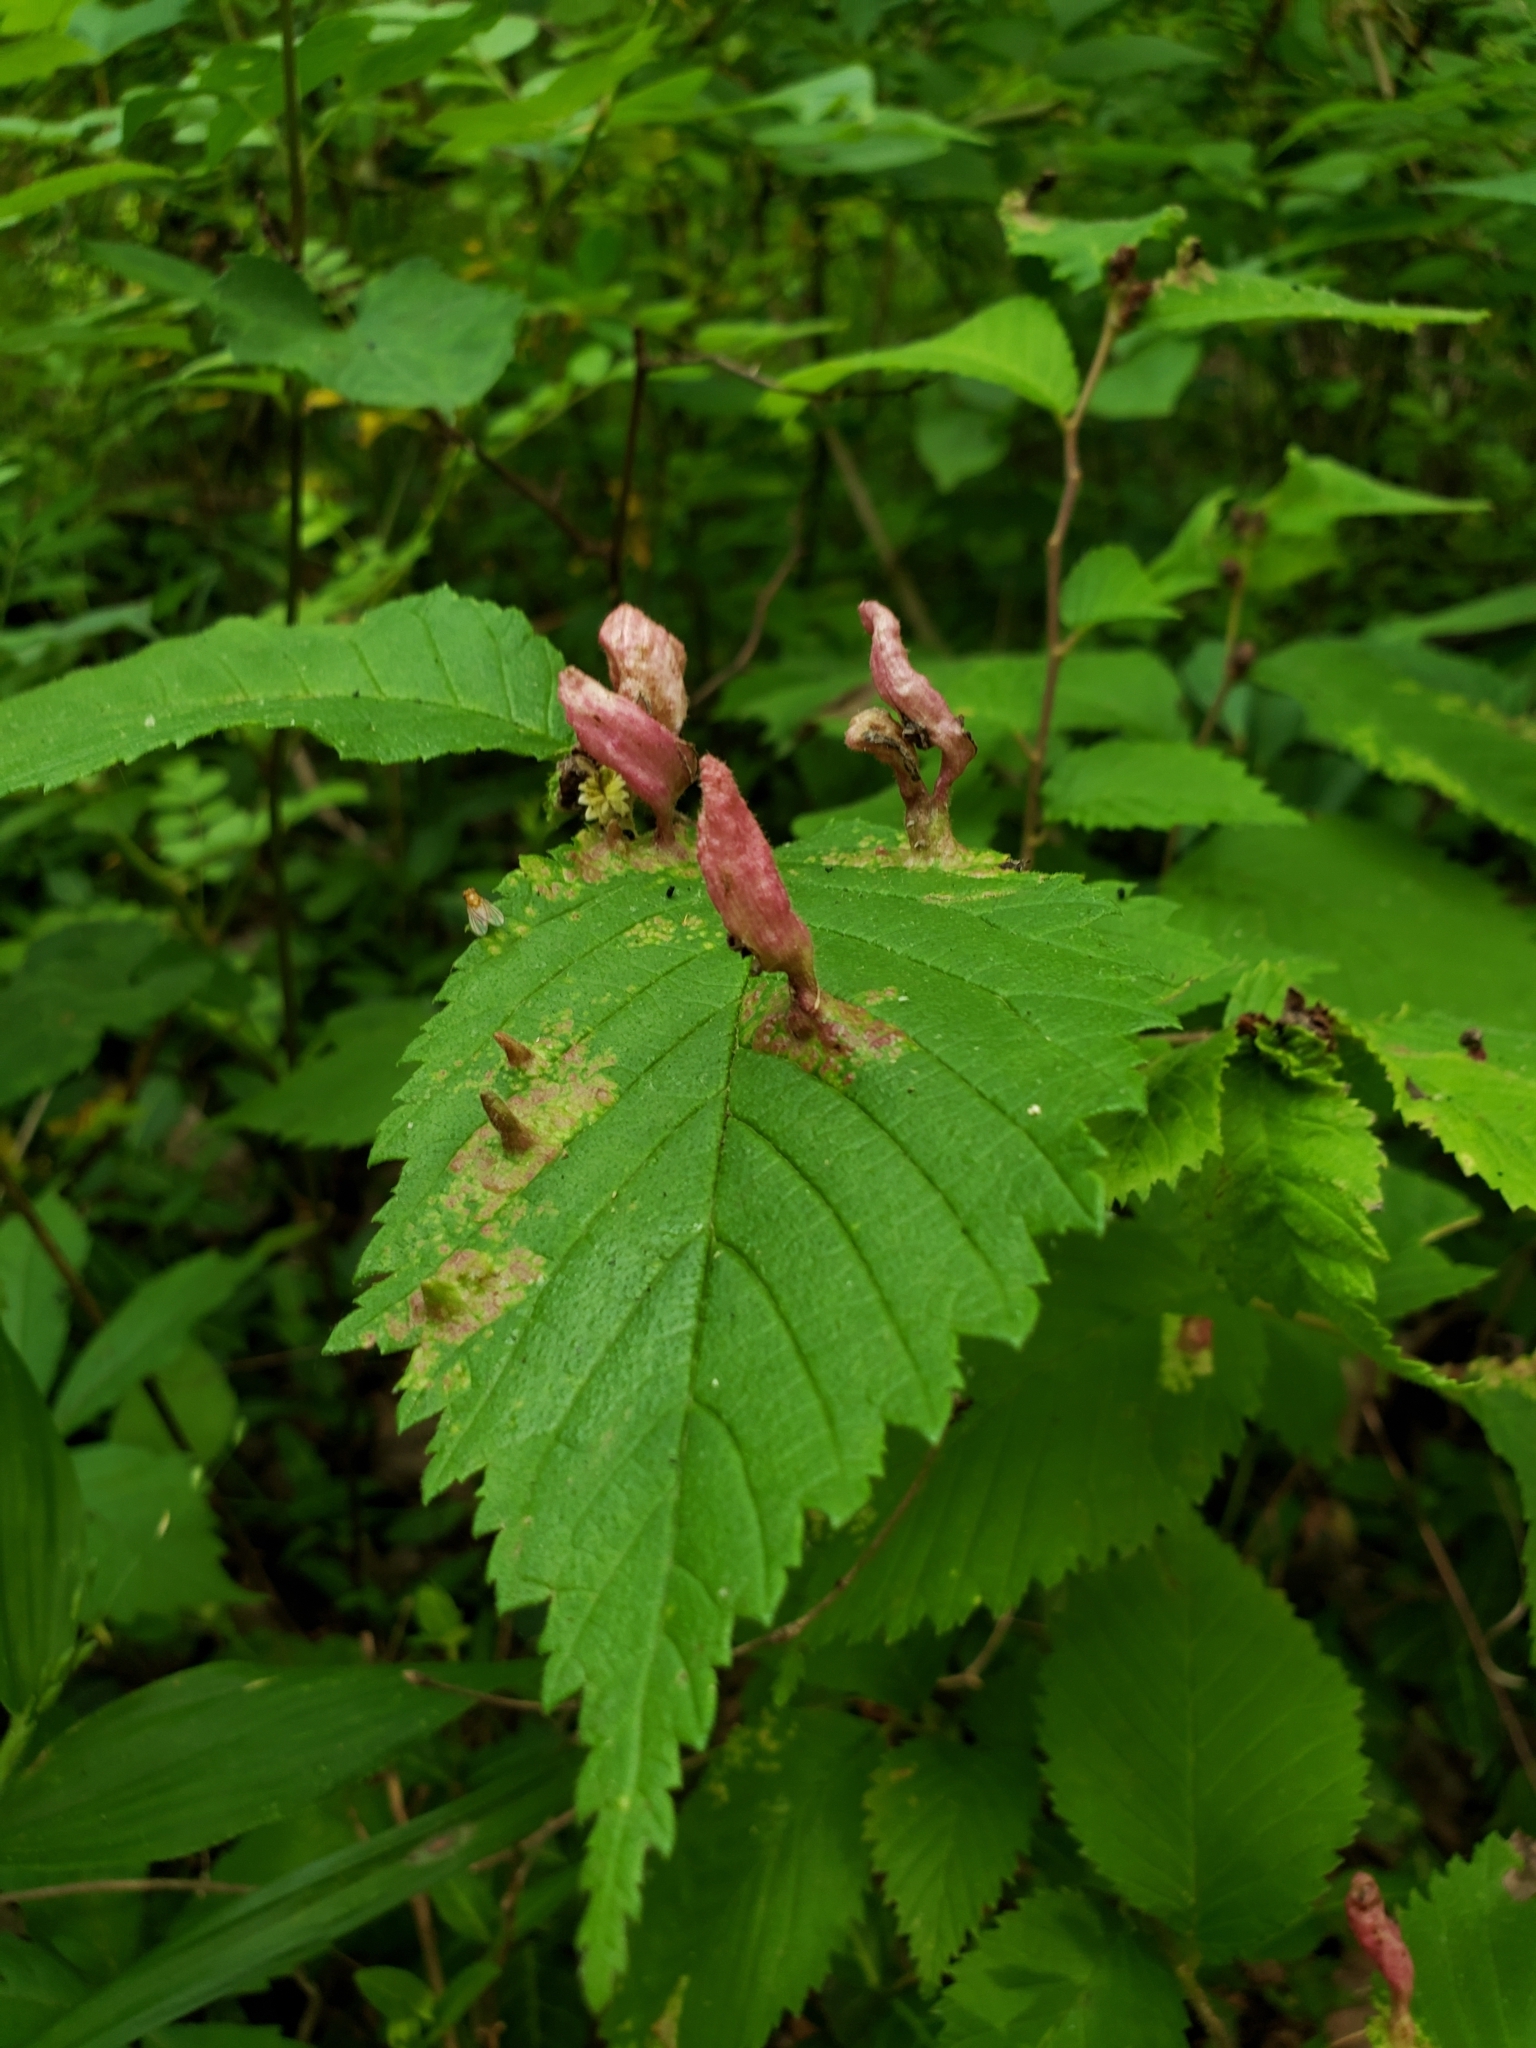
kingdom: Animalia
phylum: Arthropoda
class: Insecta
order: Hemiptera
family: Aphididae
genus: Tetraneura
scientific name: Tetraneura nigriabdominalis
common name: Aphid
